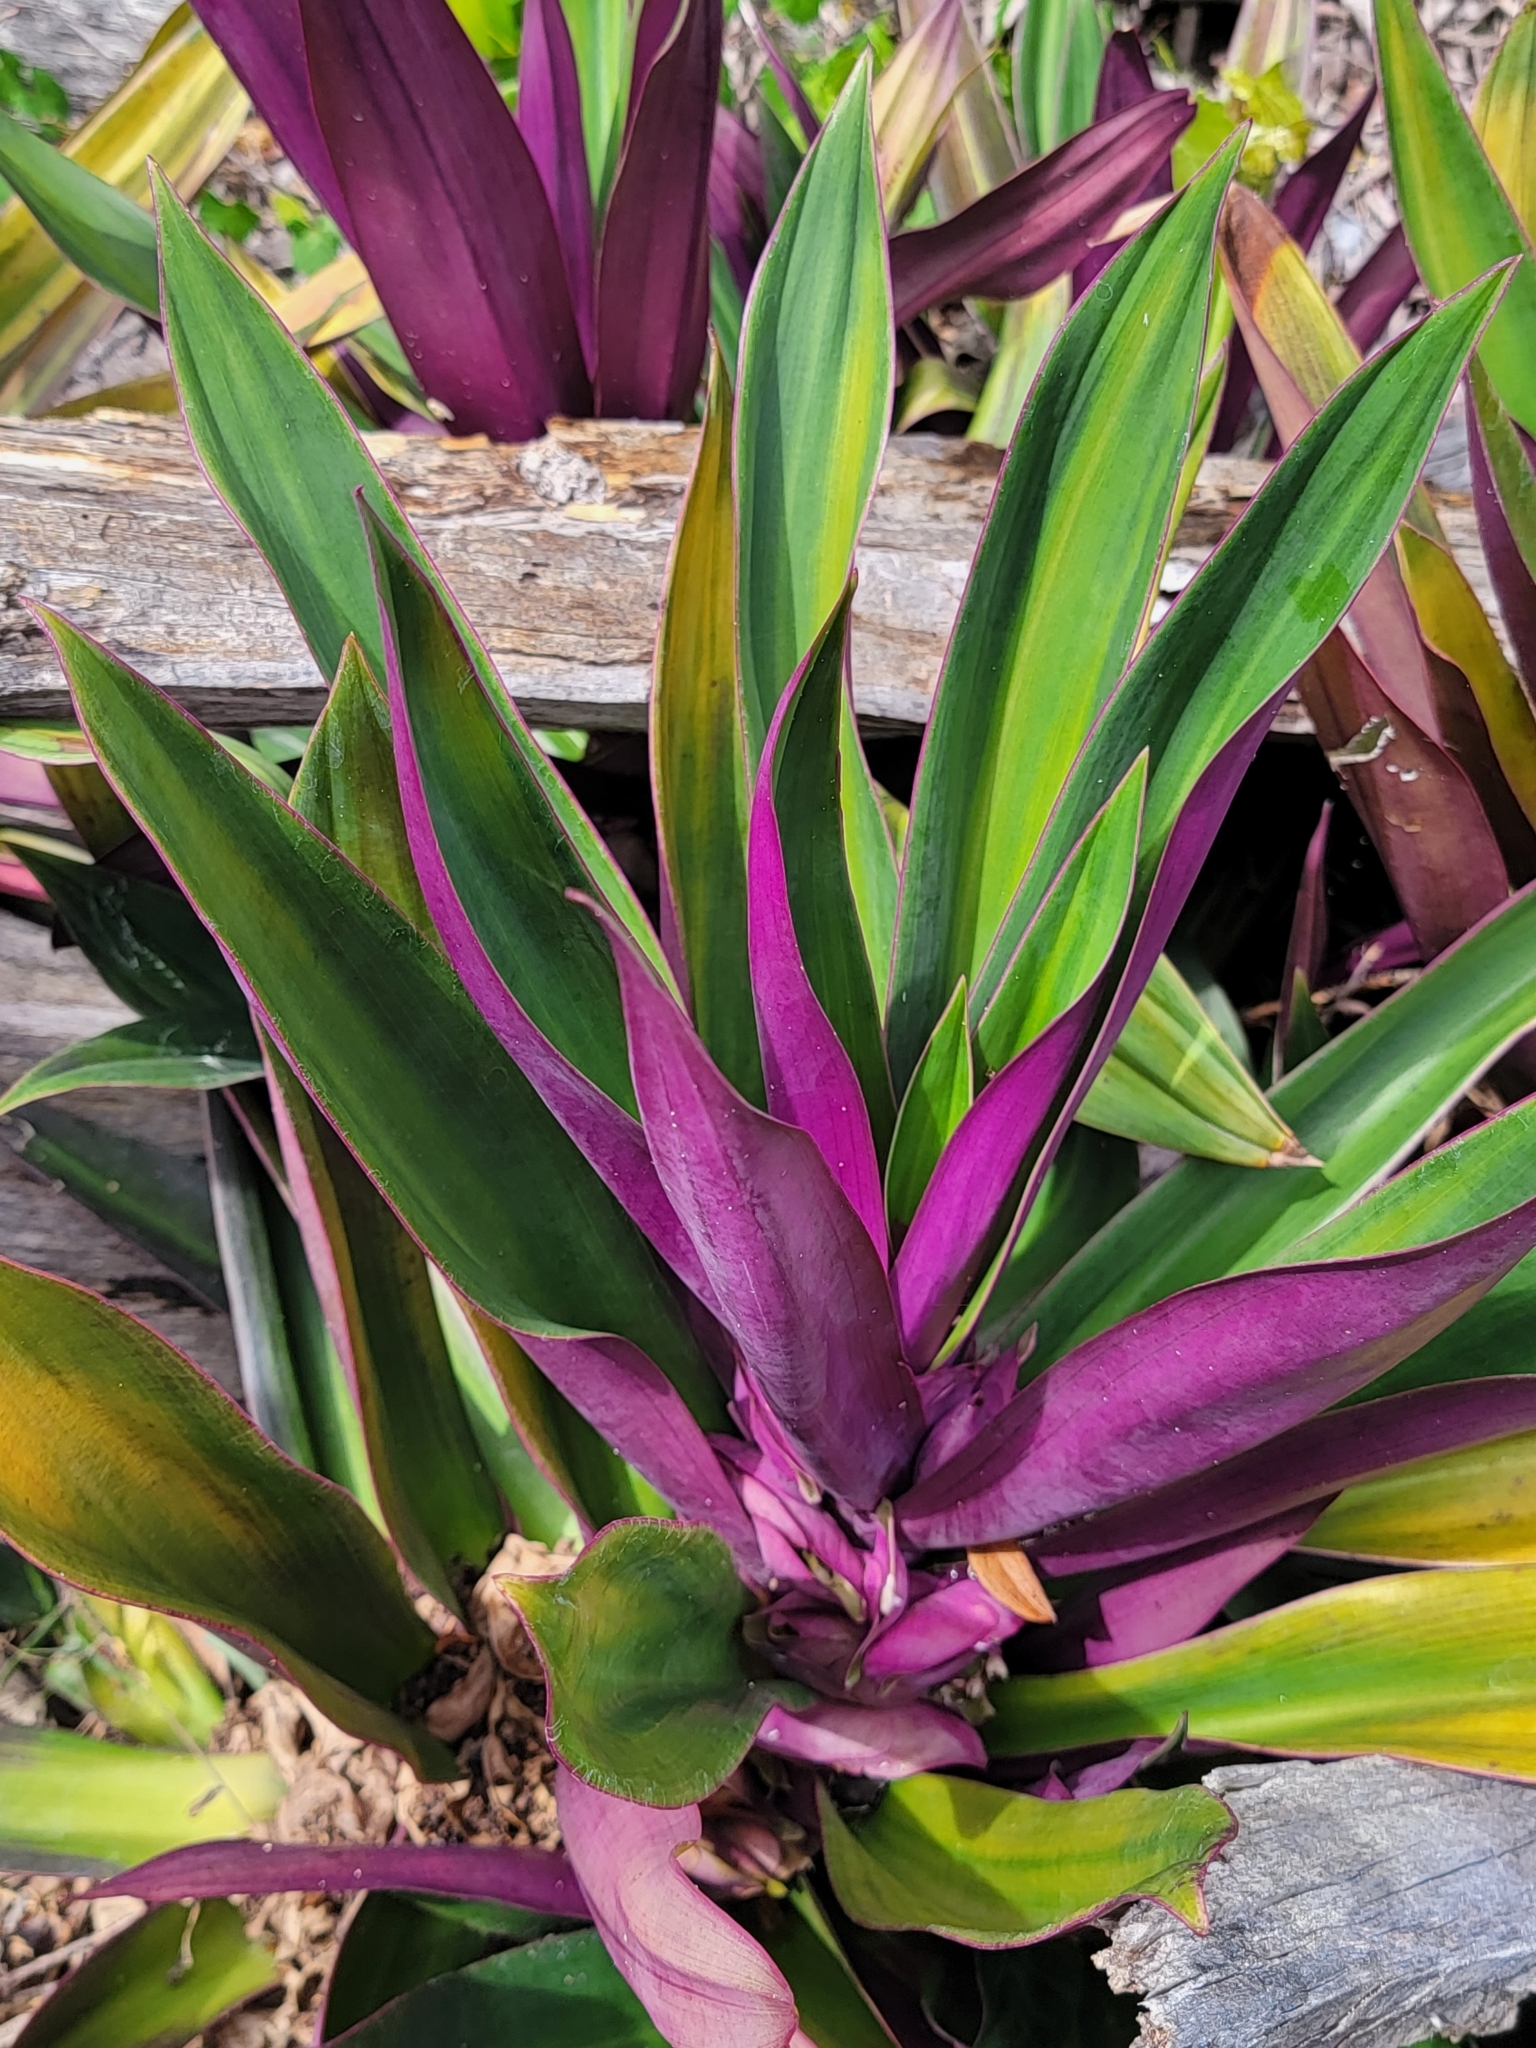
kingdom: Plantae
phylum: Tracheophyta
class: Liliopsida
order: Commelinales
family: Commelinaceae
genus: Tradescantia
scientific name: Tradescantia spathacea
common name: Boatlily
